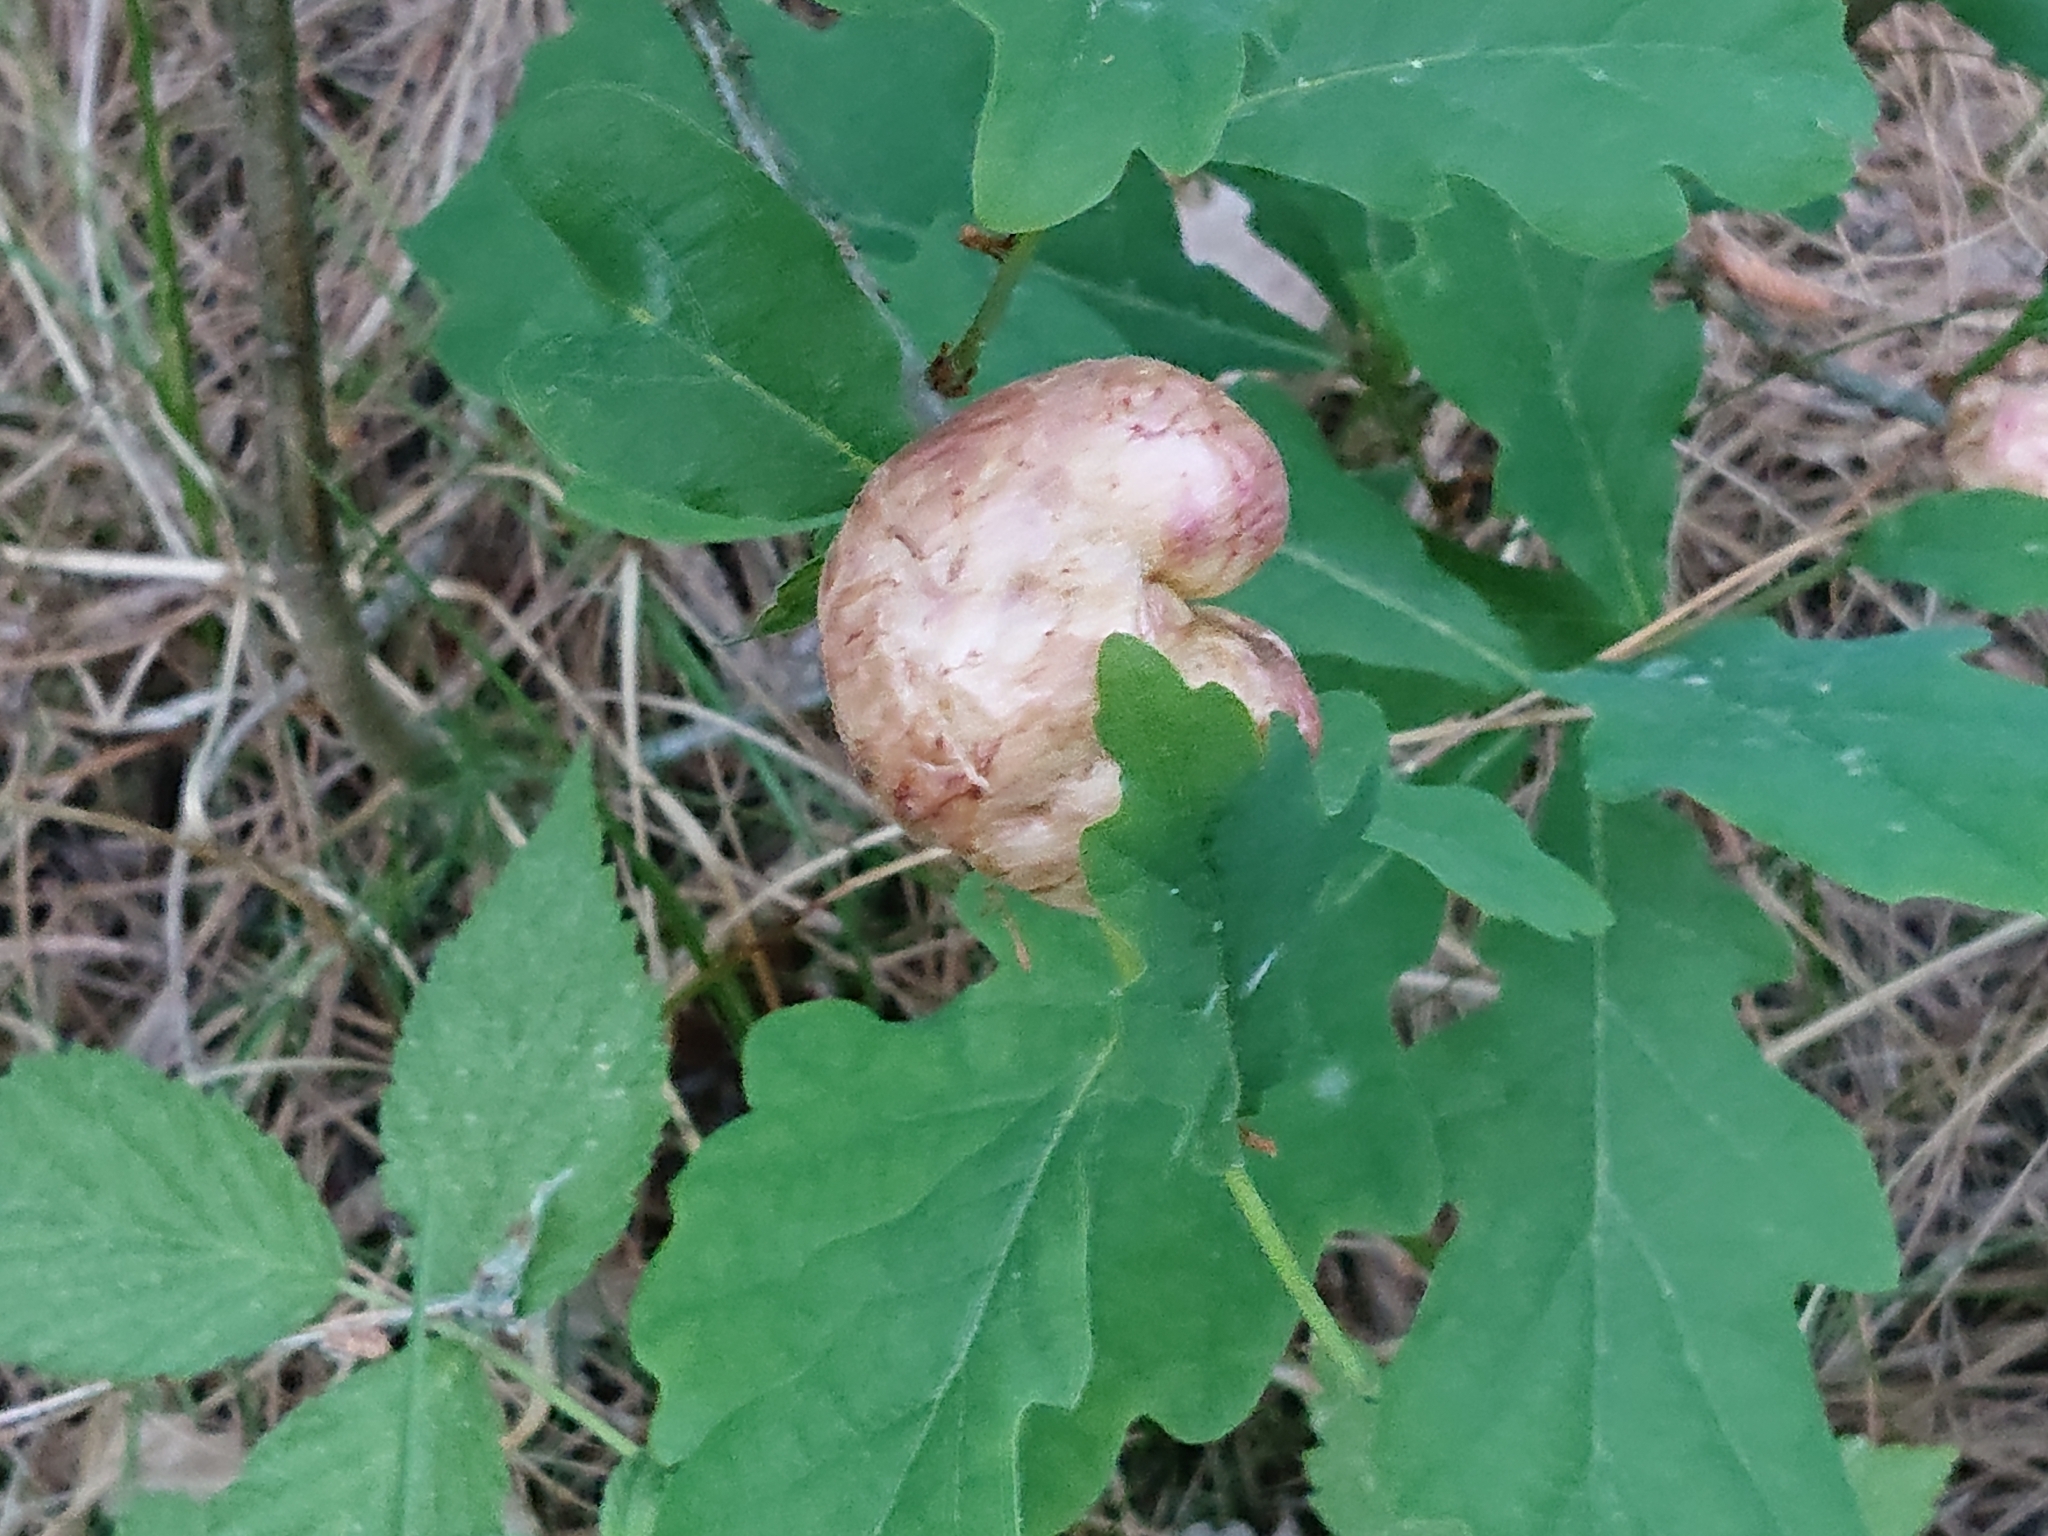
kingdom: Animalia
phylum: Arthropoda
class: Insecta
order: Hymenoptera
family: Cynipidae
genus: Biorhiza
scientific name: Biorhiza pallida
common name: Oak apple
